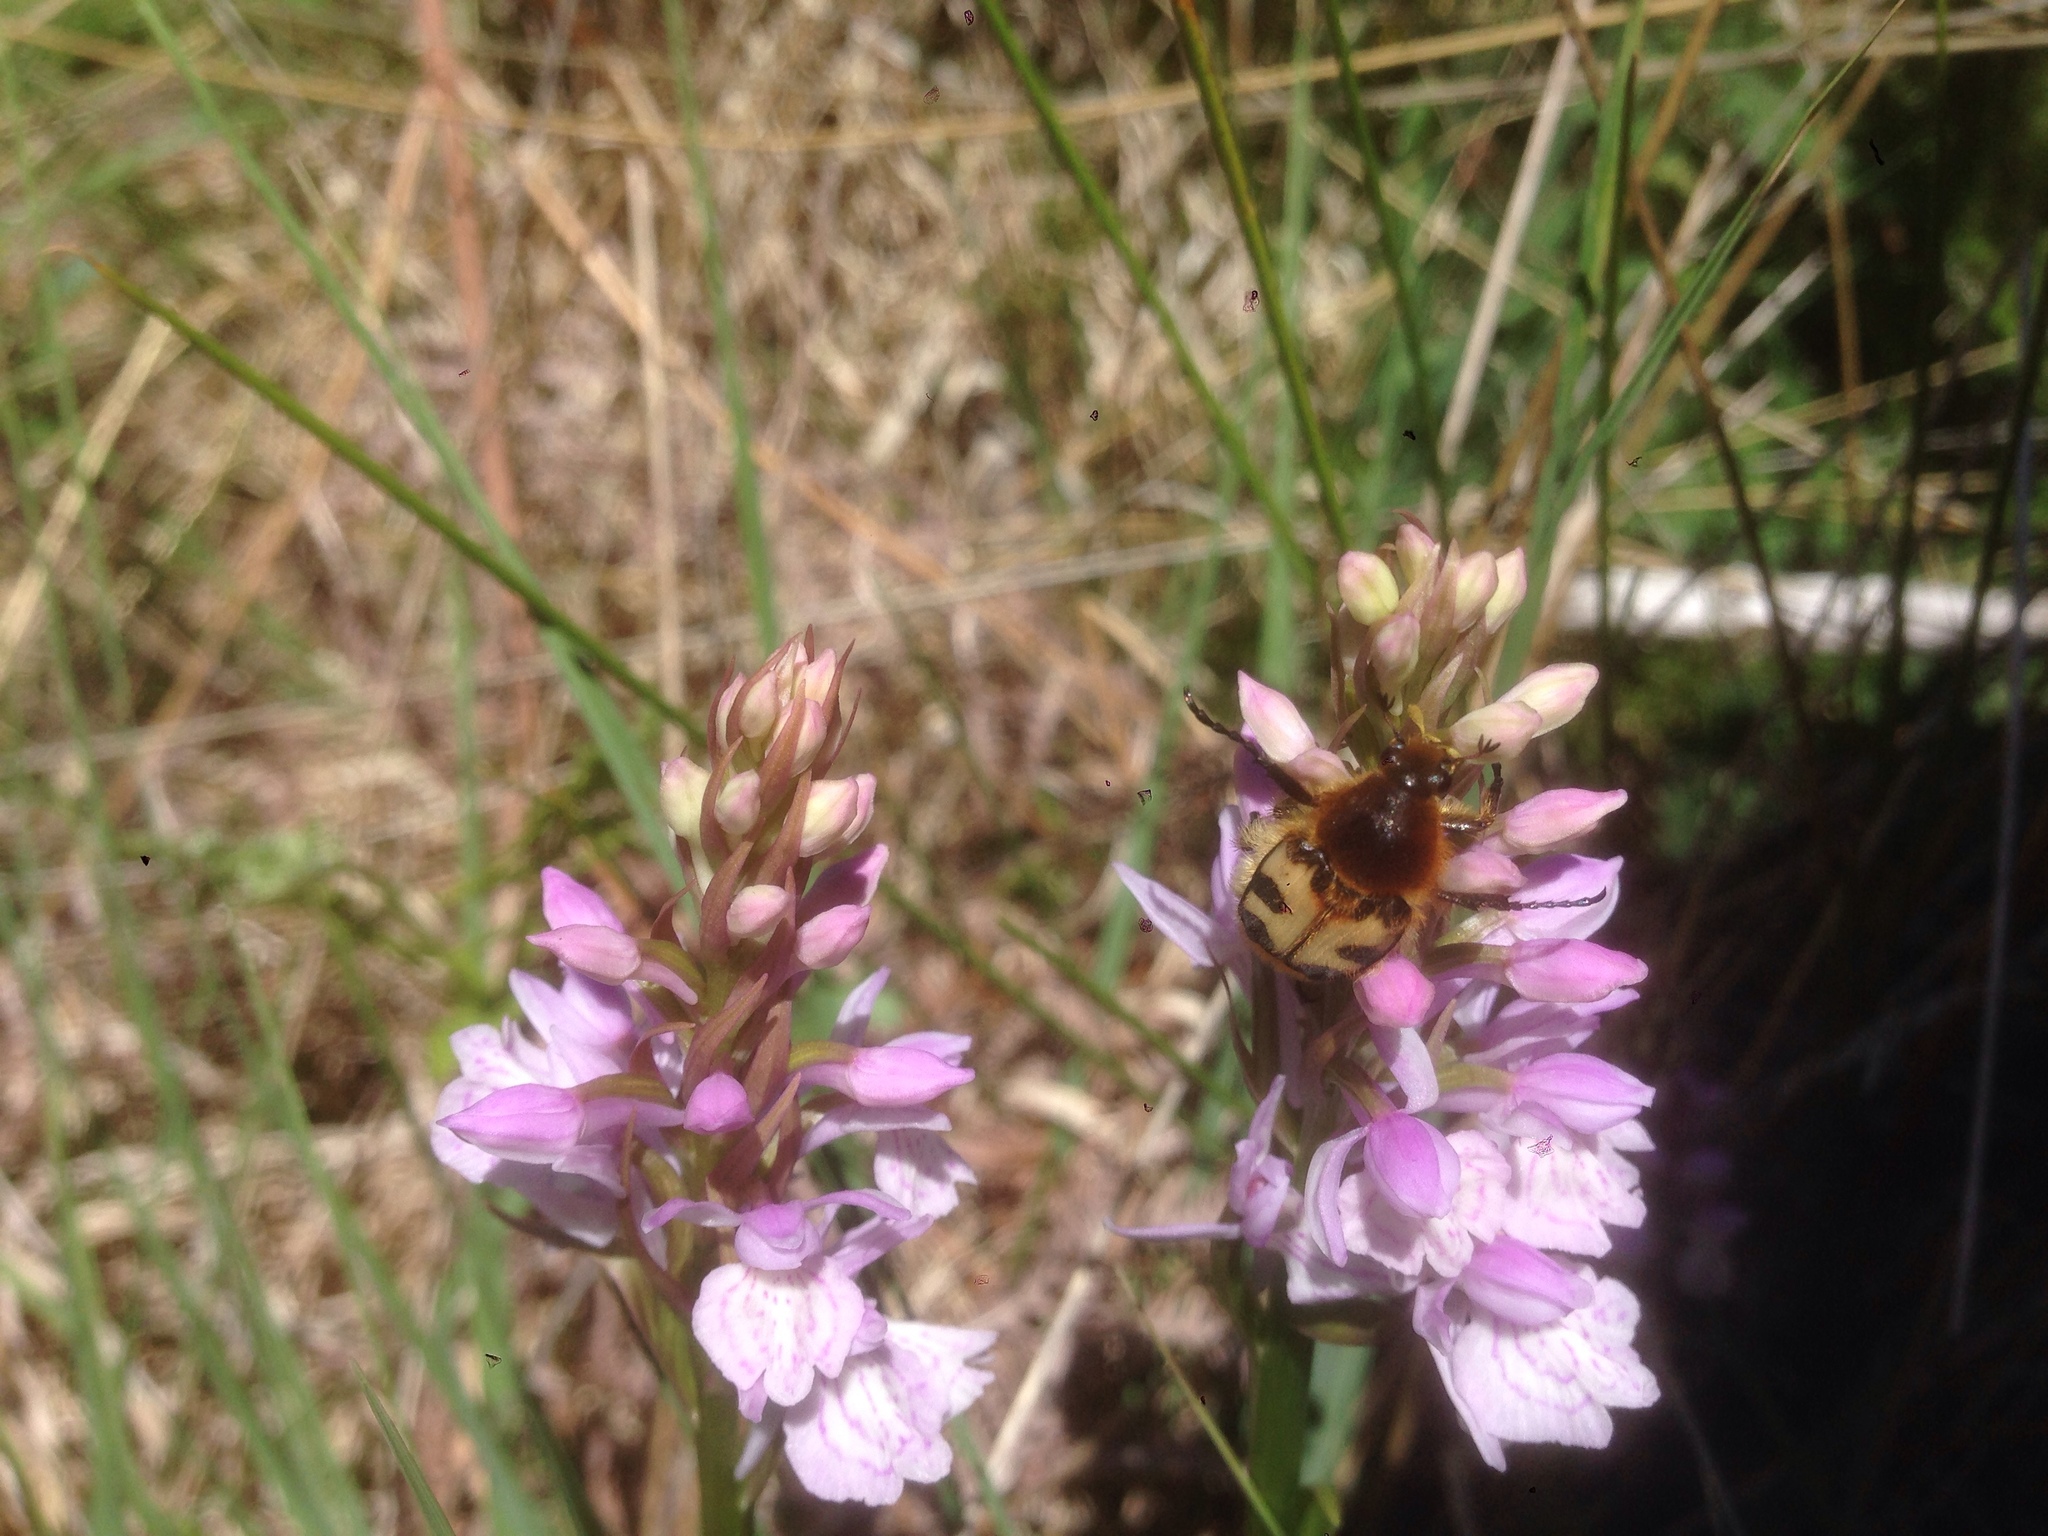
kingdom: Animalia
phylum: Arthropoda
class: Insecta
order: Coleoptera
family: Scarabaeidae
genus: Trichius
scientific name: Trichius fasciatus
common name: Bee beetle
